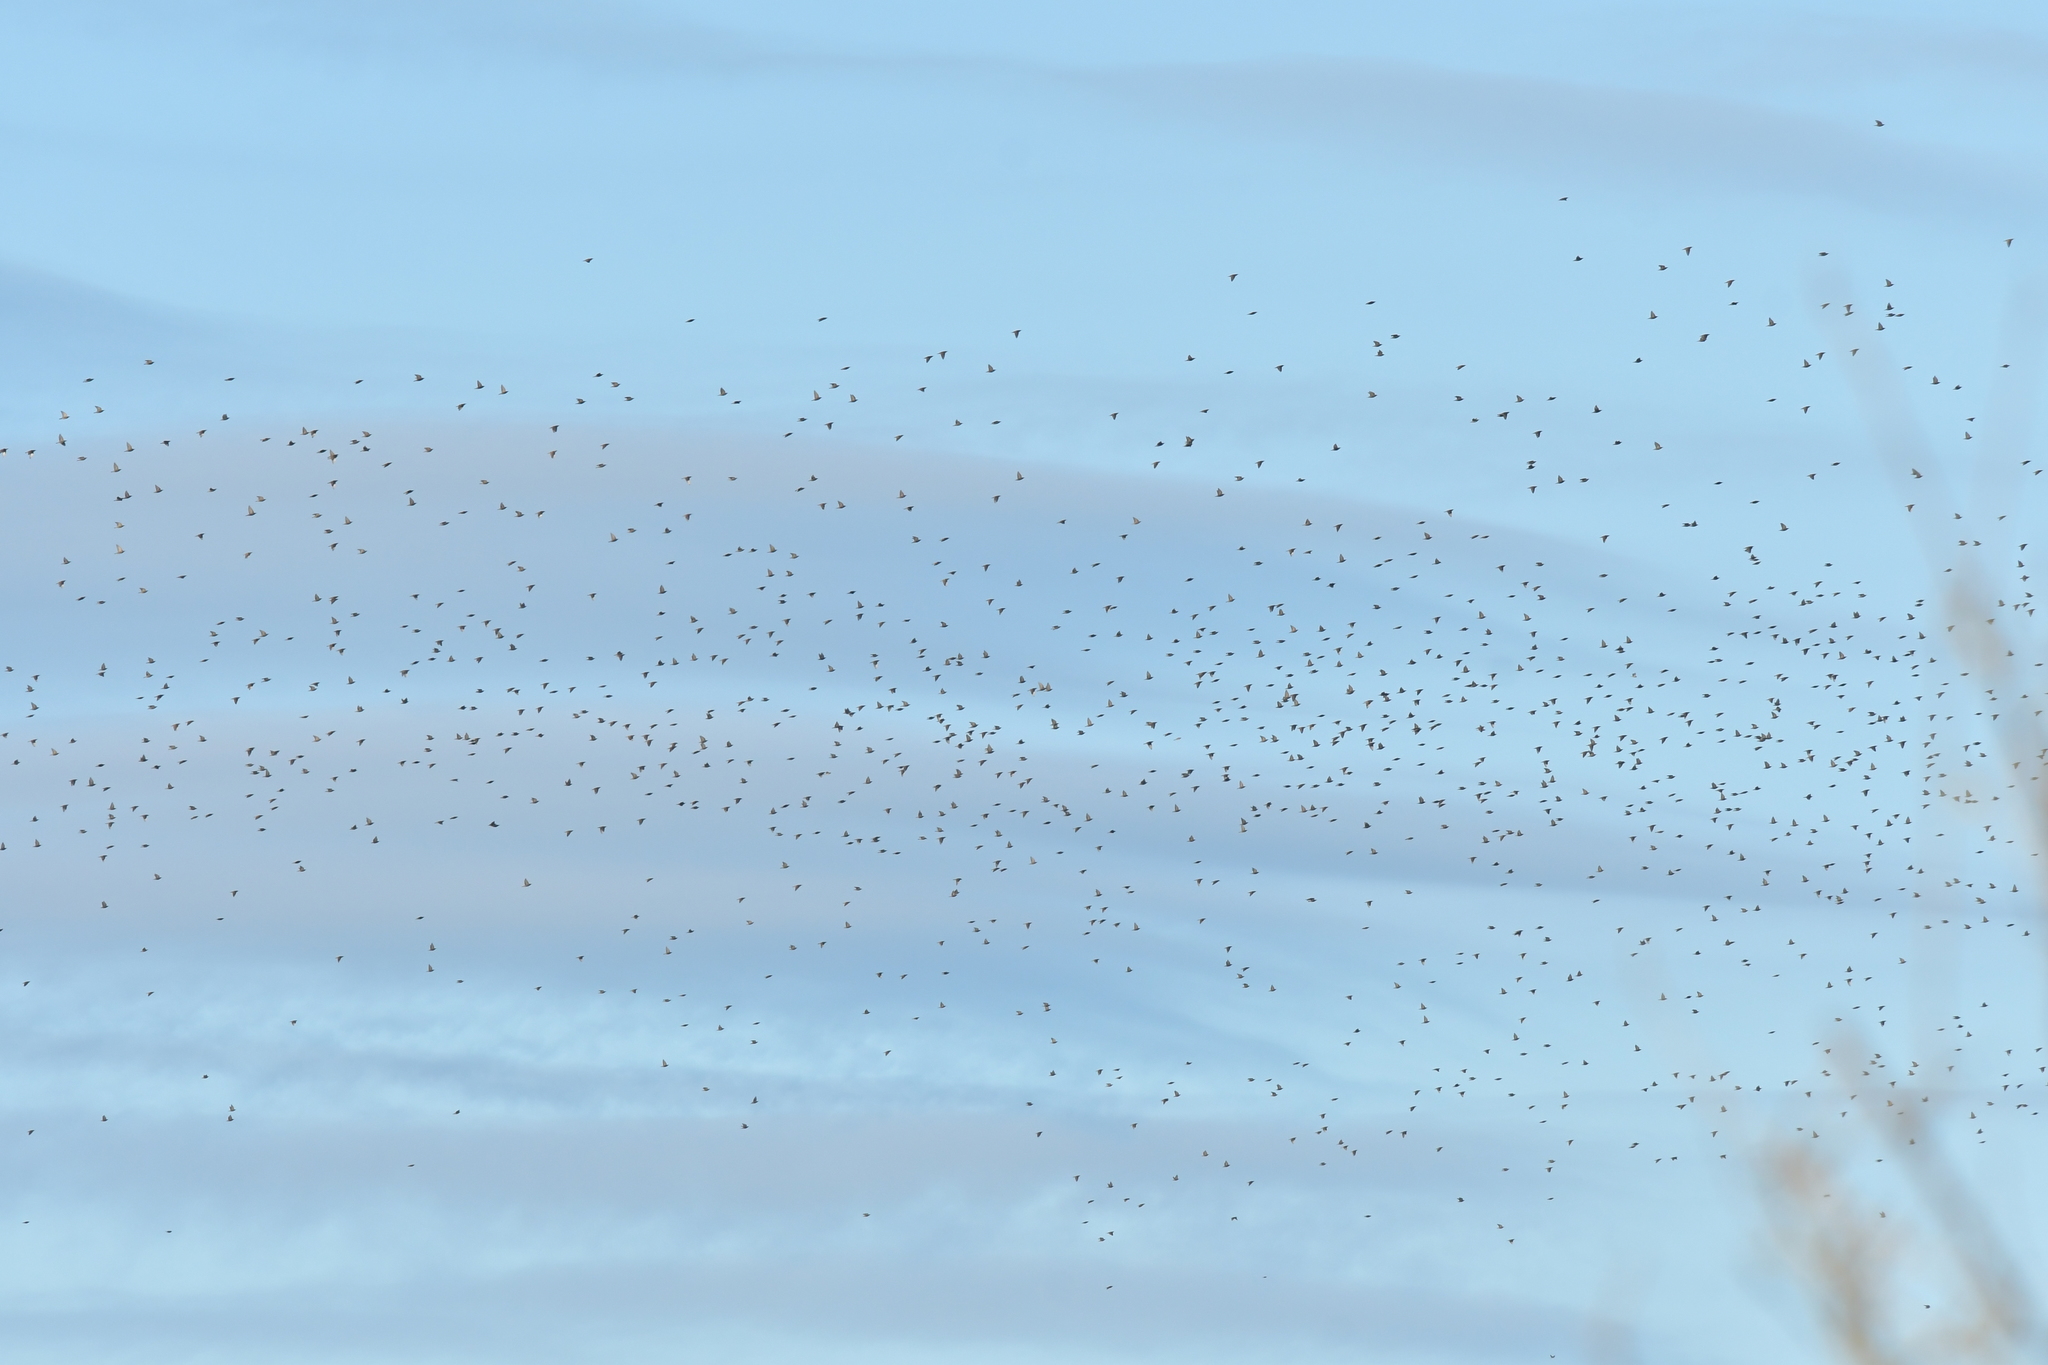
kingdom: Animalia
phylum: Chordata
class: Aves
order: Passeriformes
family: Sturnidae
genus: Sturnus
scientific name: Sturnus vulgaris
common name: Common starling
